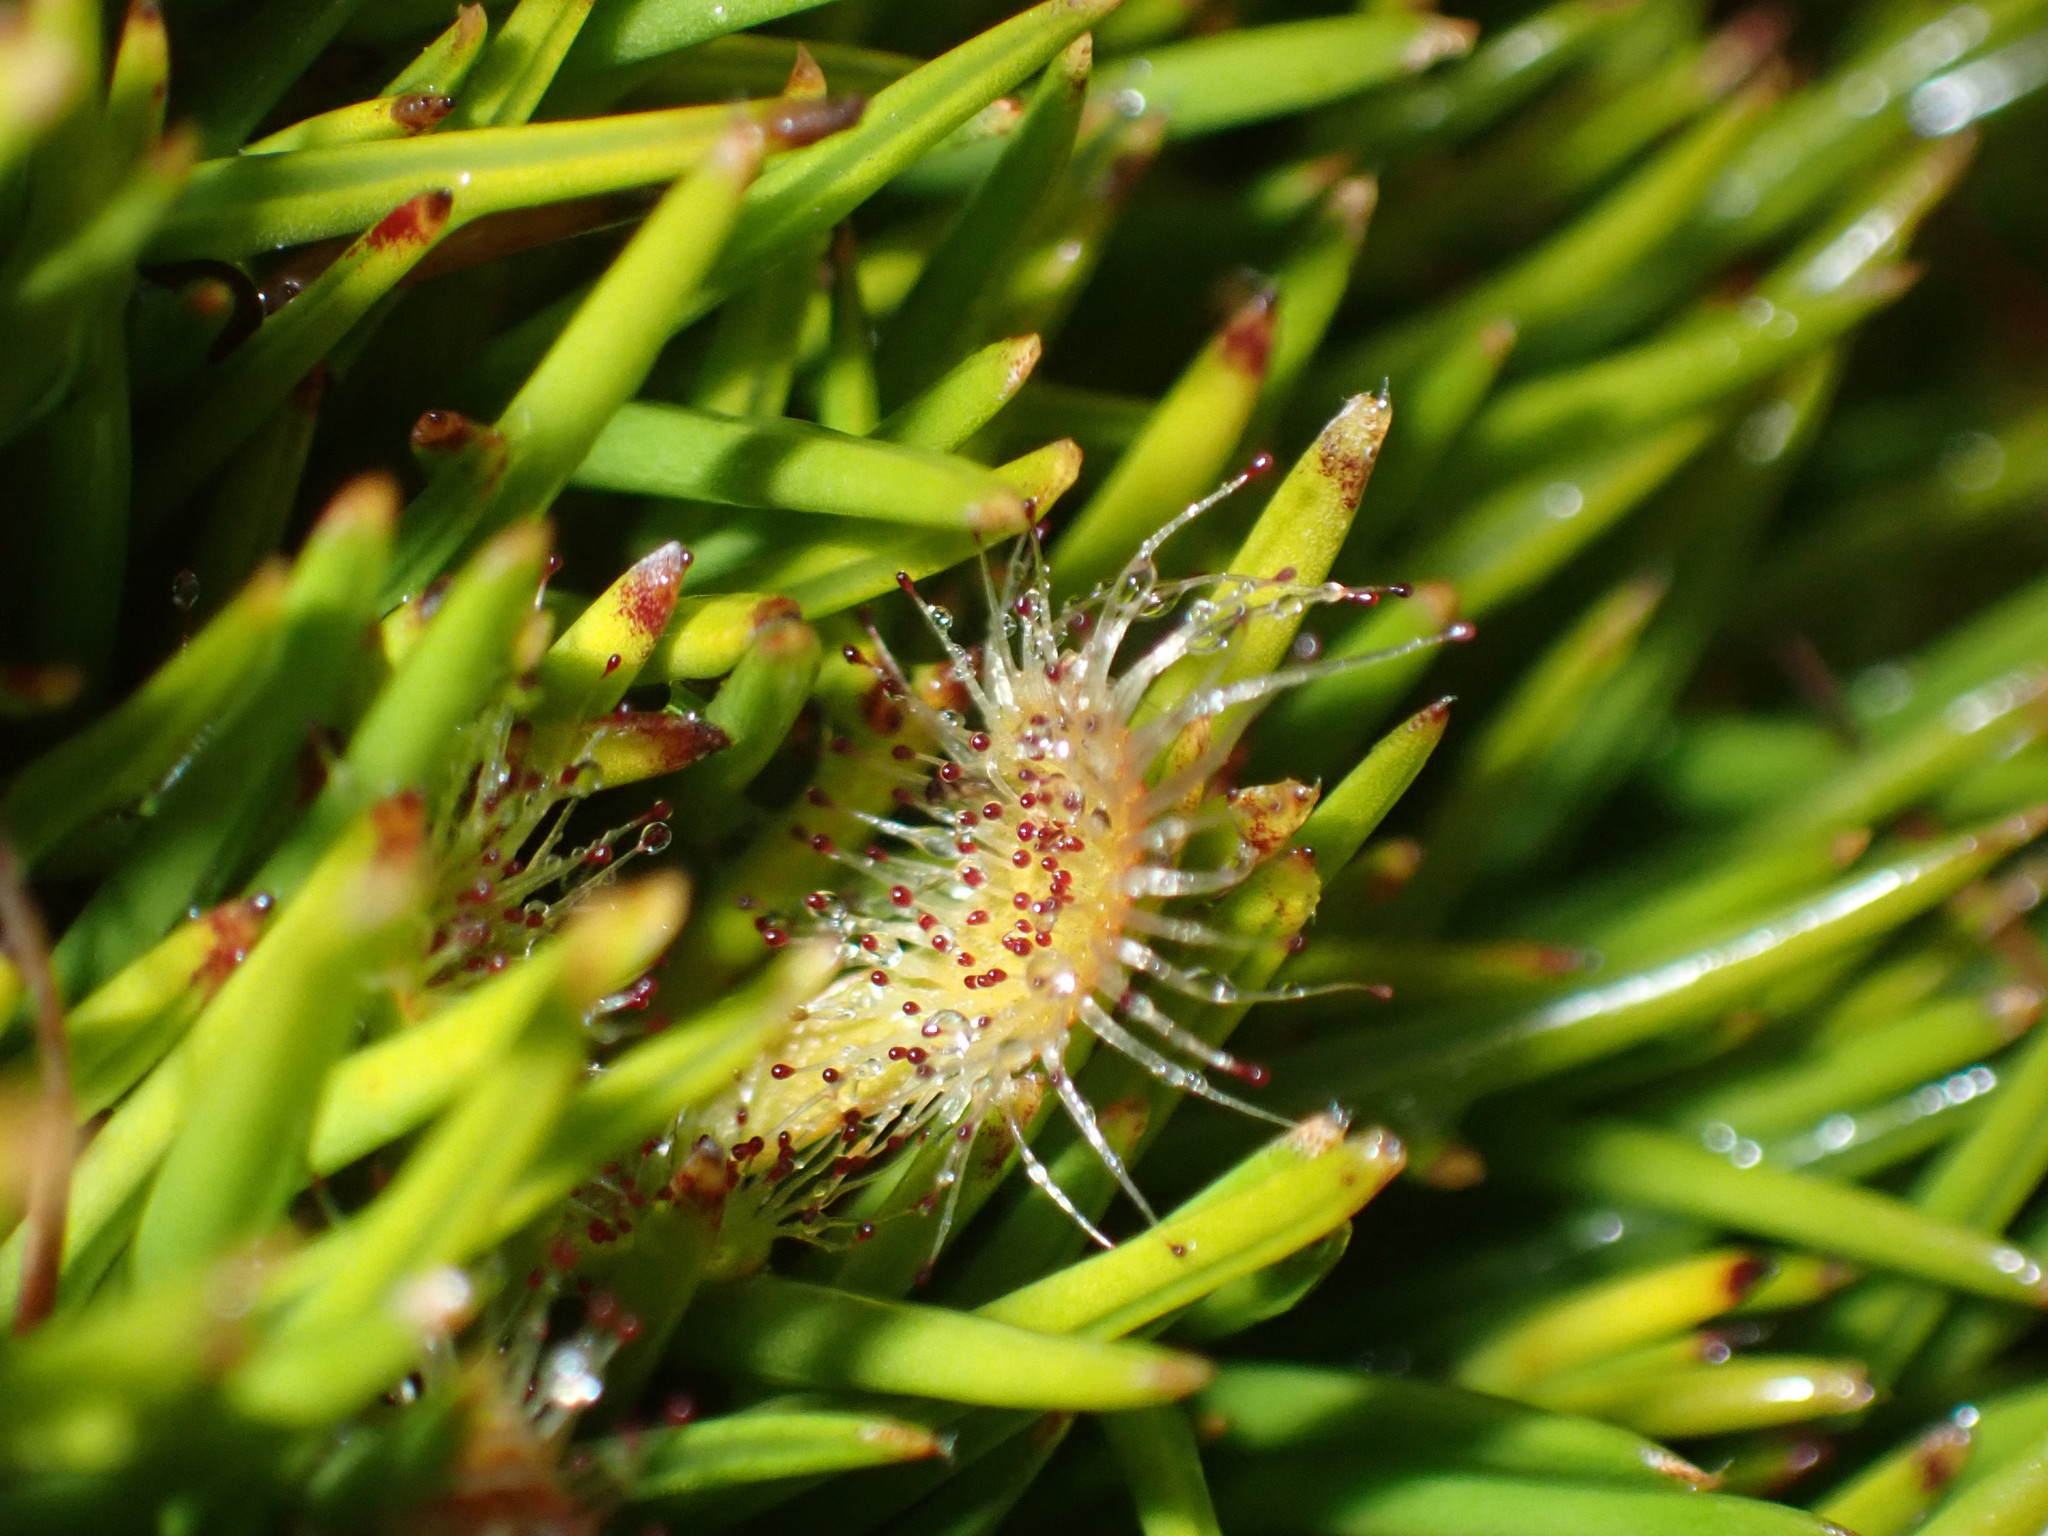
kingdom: Plantae
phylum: Tracheophyta
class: Magnoliopsida
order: Caryophyllales
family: Droseraceae
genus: Drosera
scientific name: Drosera stenopetala
